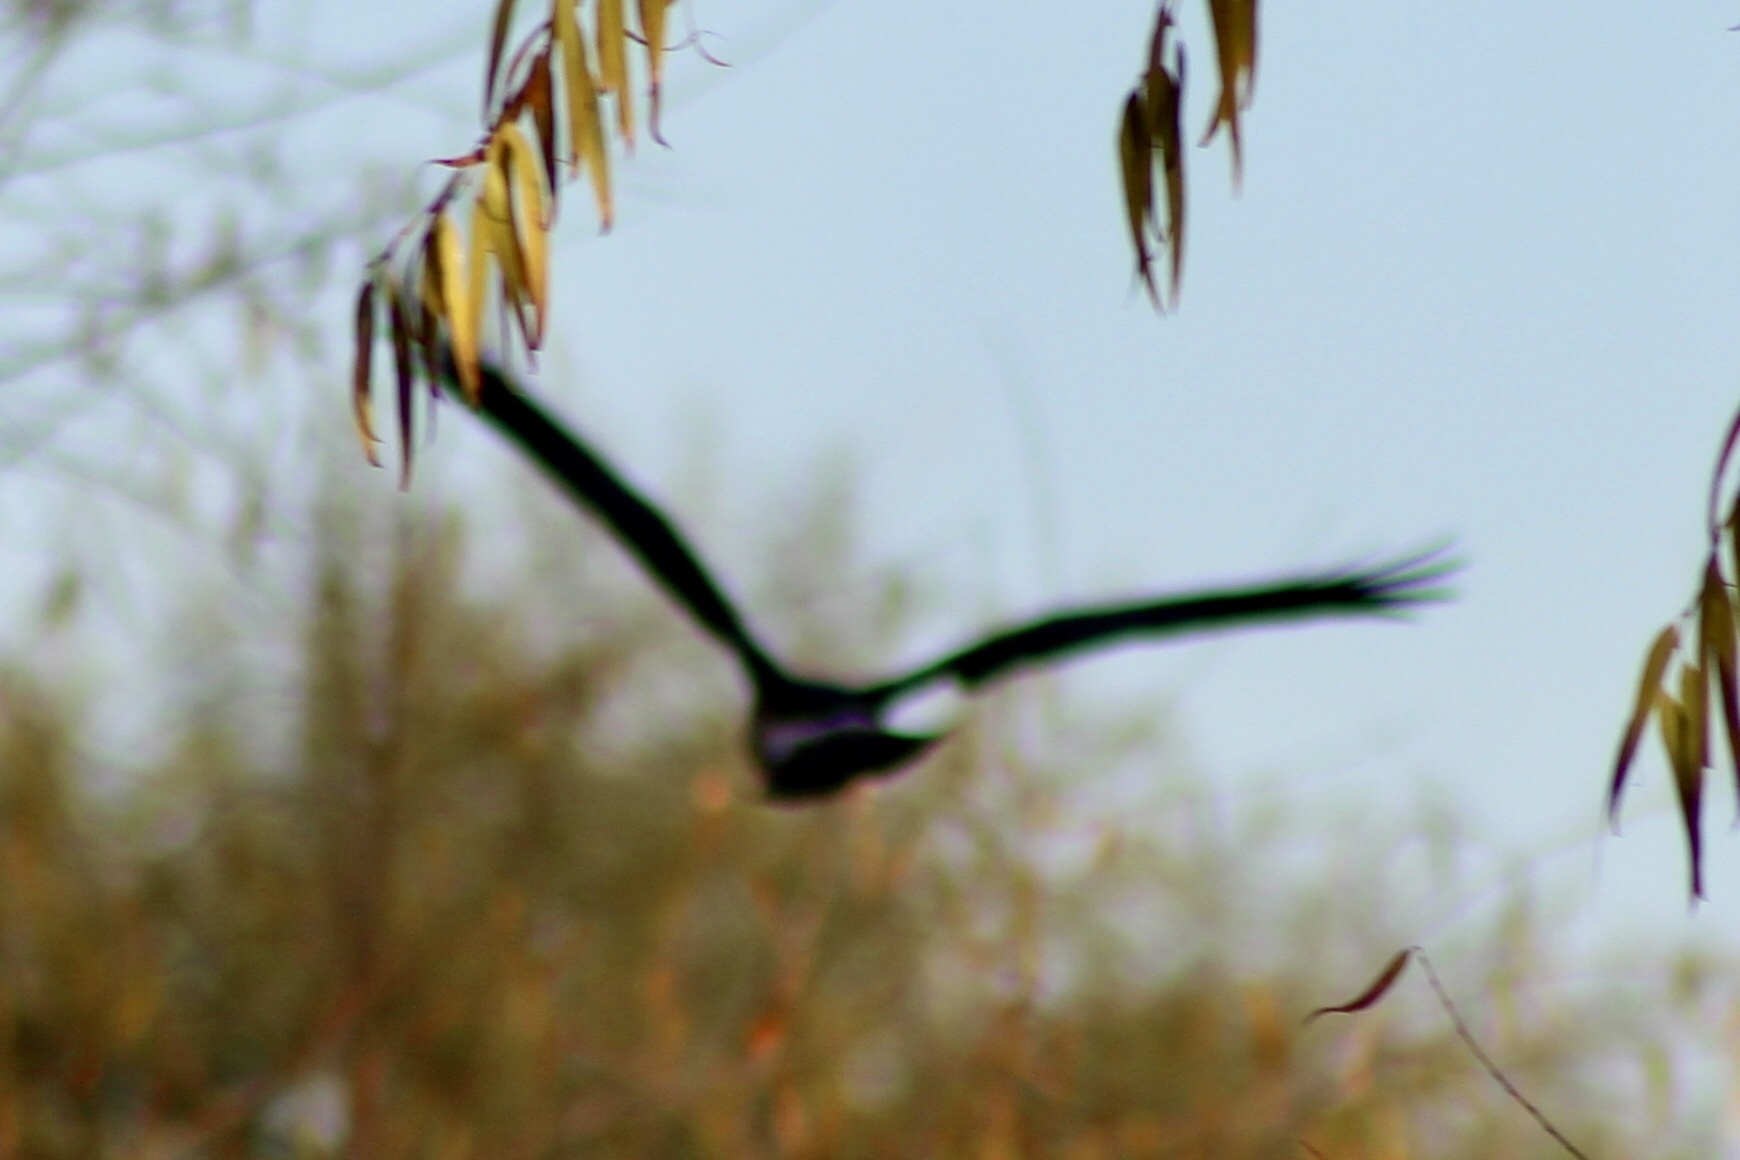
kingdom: Animalia
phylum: Chordata
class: Aves
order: Accipitriformes
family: Accipitridae
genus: Circus
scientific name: Circus cyaneus
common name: Hen harrier
